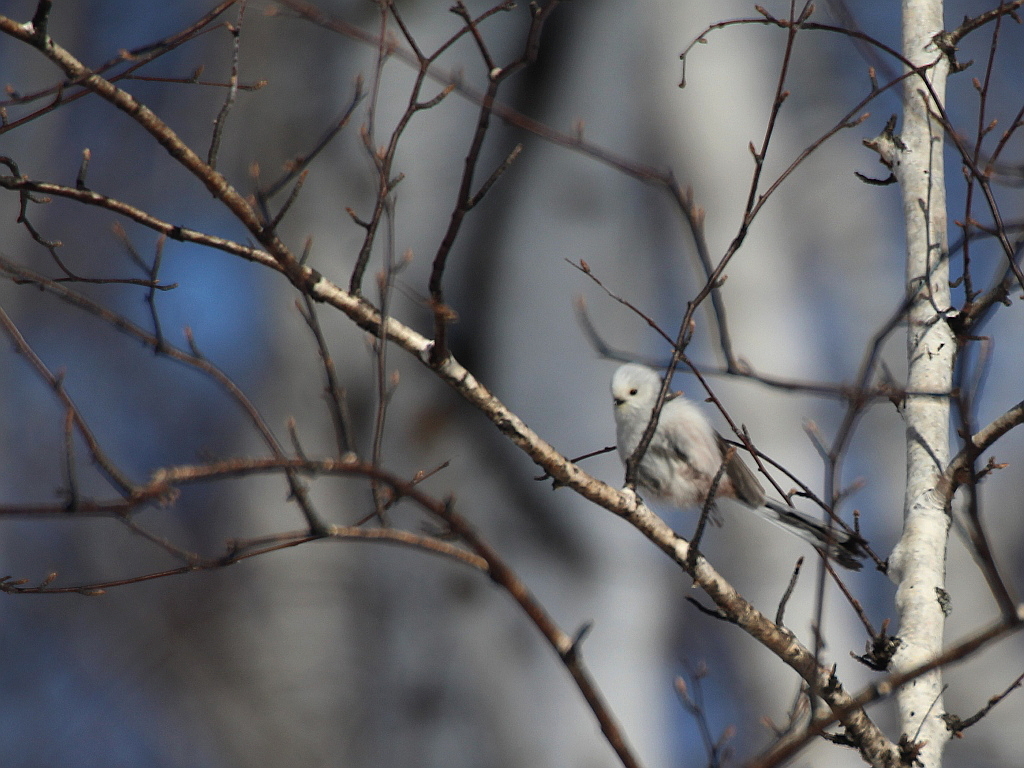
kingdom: Animalia
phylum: Chordata
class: Aves
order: Passeriformes
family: Aegithalidae
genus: Aegithalos
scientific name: Aegithalos caudatus
